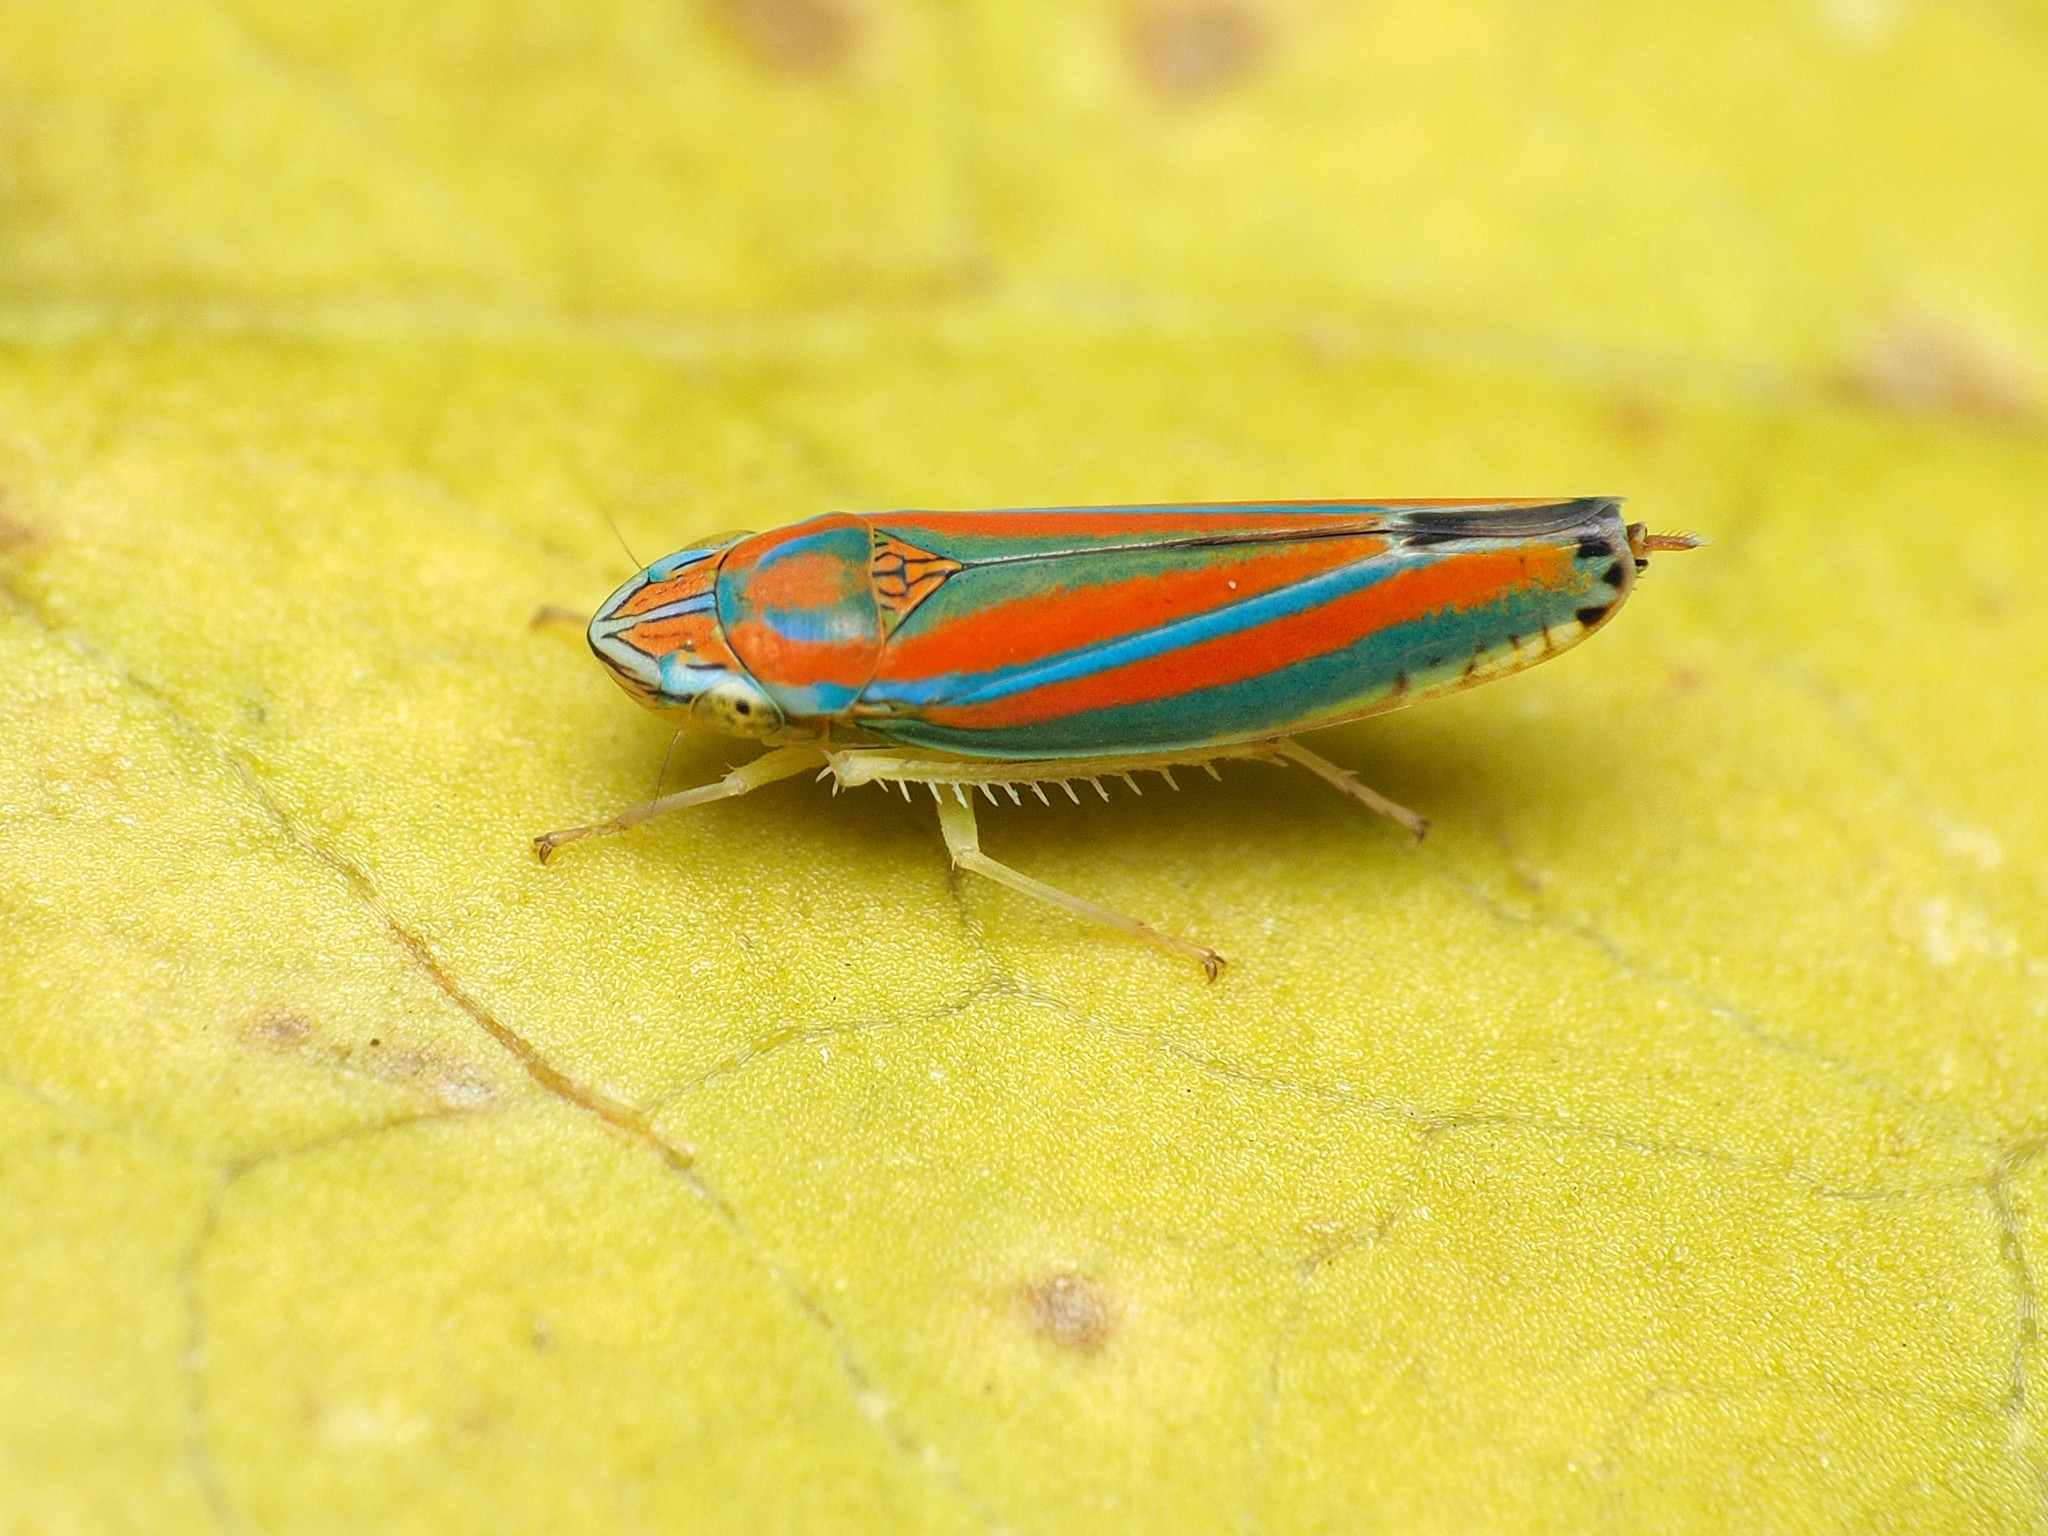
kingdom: Animalia
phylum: Arthropoda
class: Insecta
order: Hemiptera
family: Cicadellidae
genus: Graphocephala
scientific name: Graphocephala versuta
